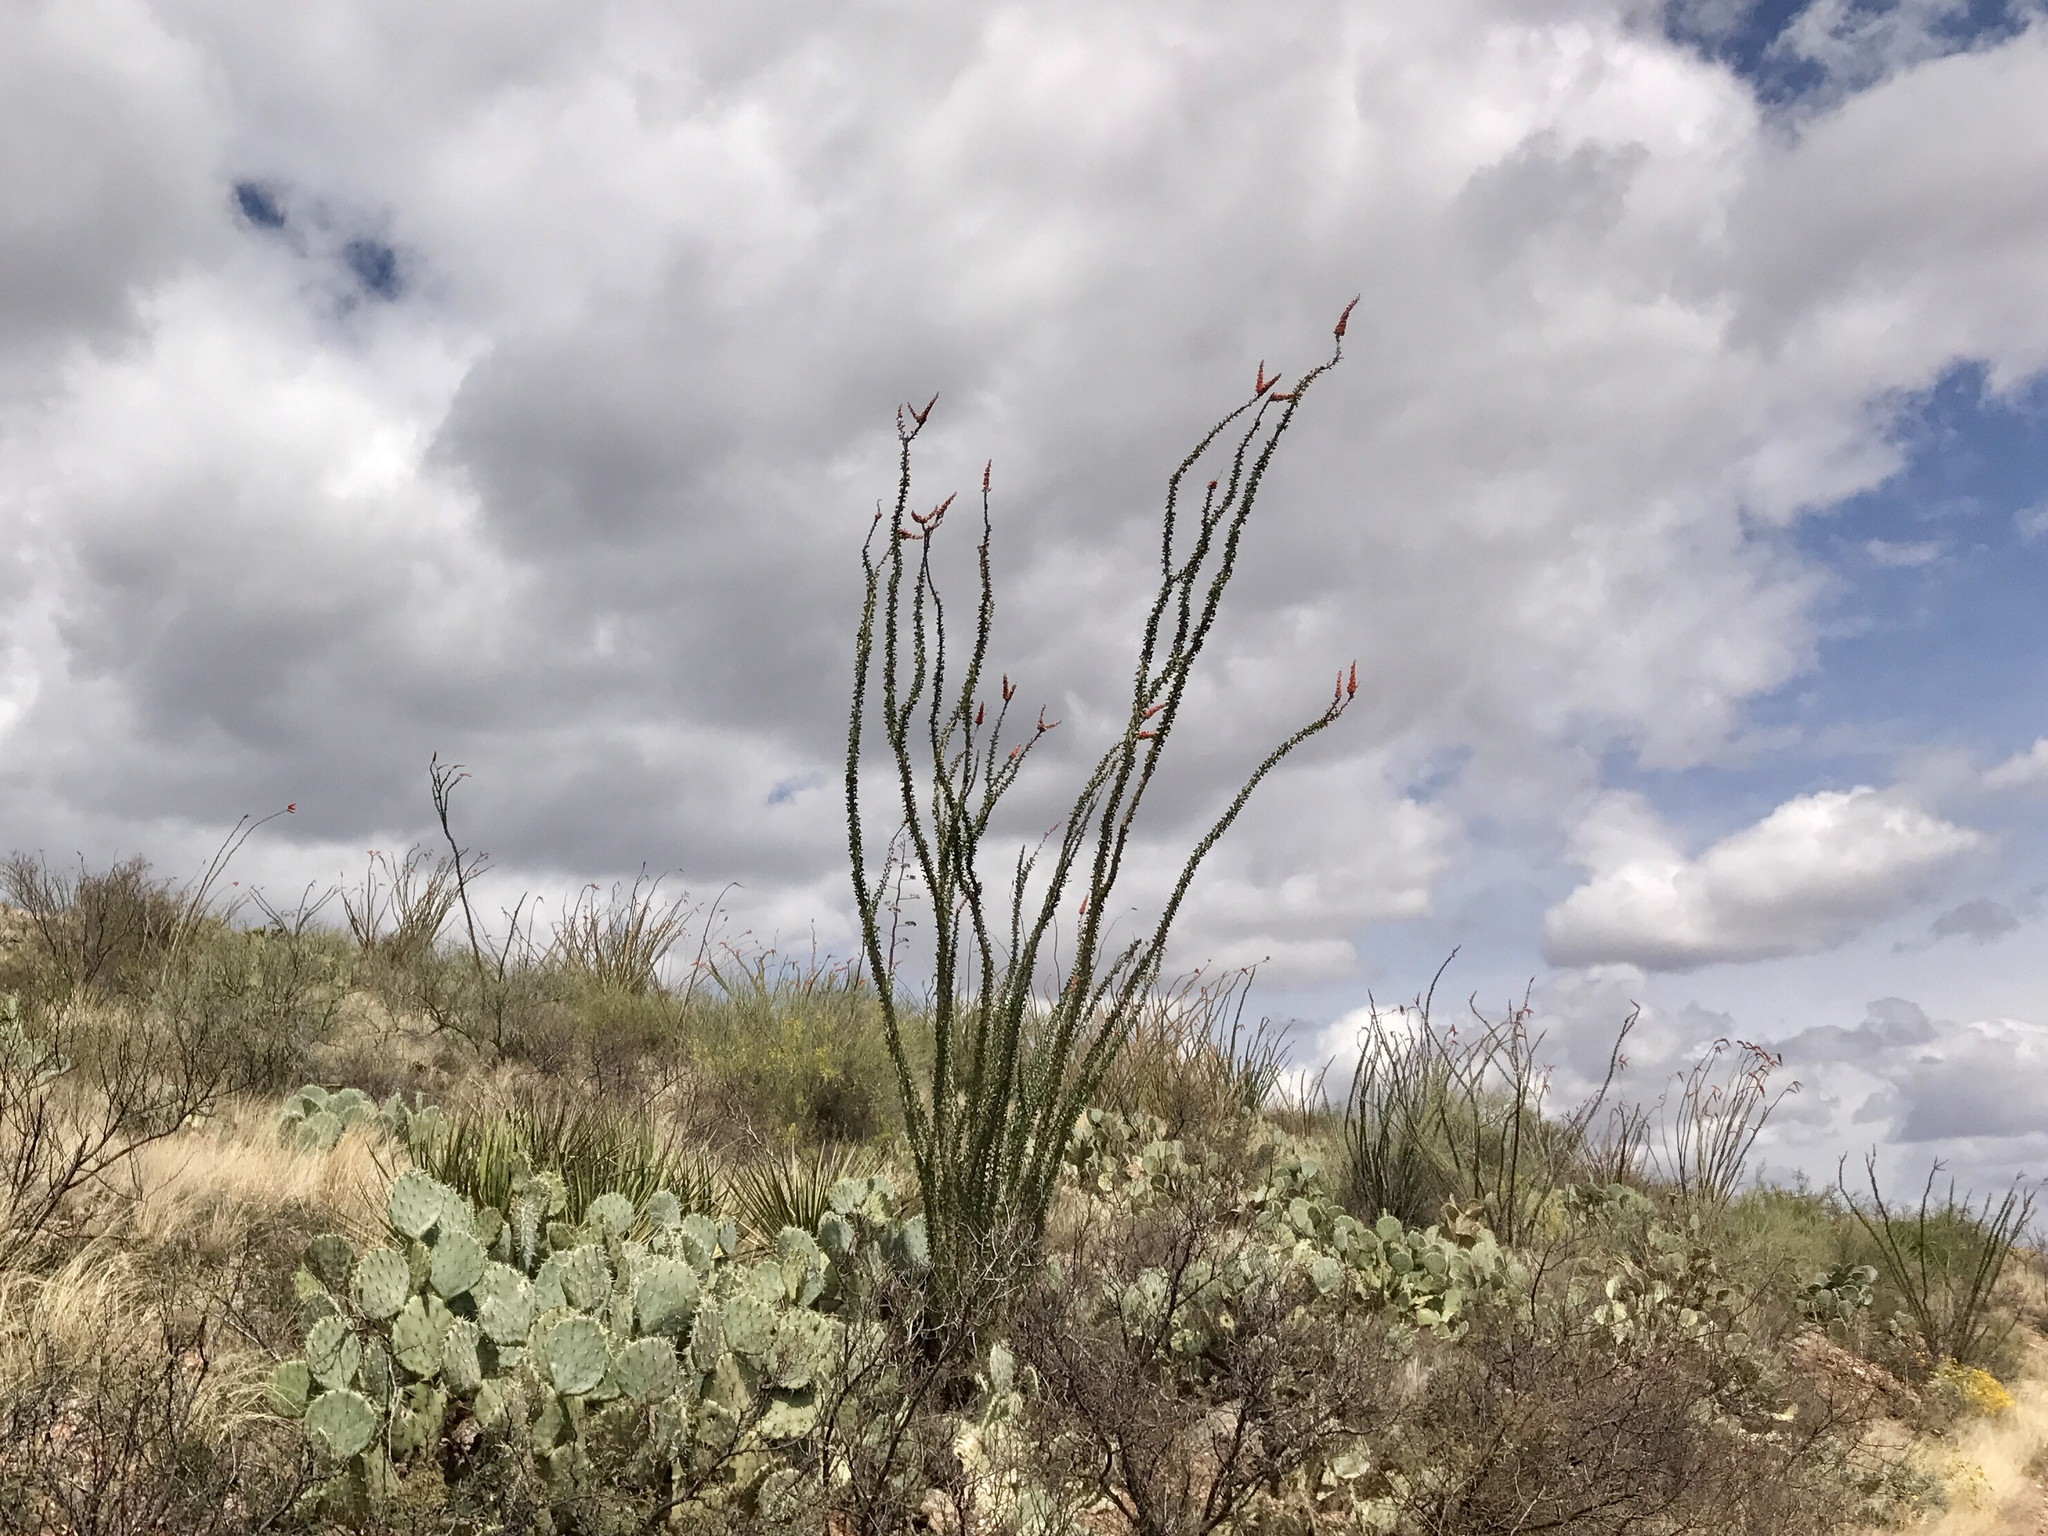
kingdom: Plantae
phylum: Tracheophyta
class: Magnoliopsida
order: Ericales
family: Fouquieriaceae
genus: Fouquieria
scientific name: Fouquieria splendens
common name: Vine-cactus
